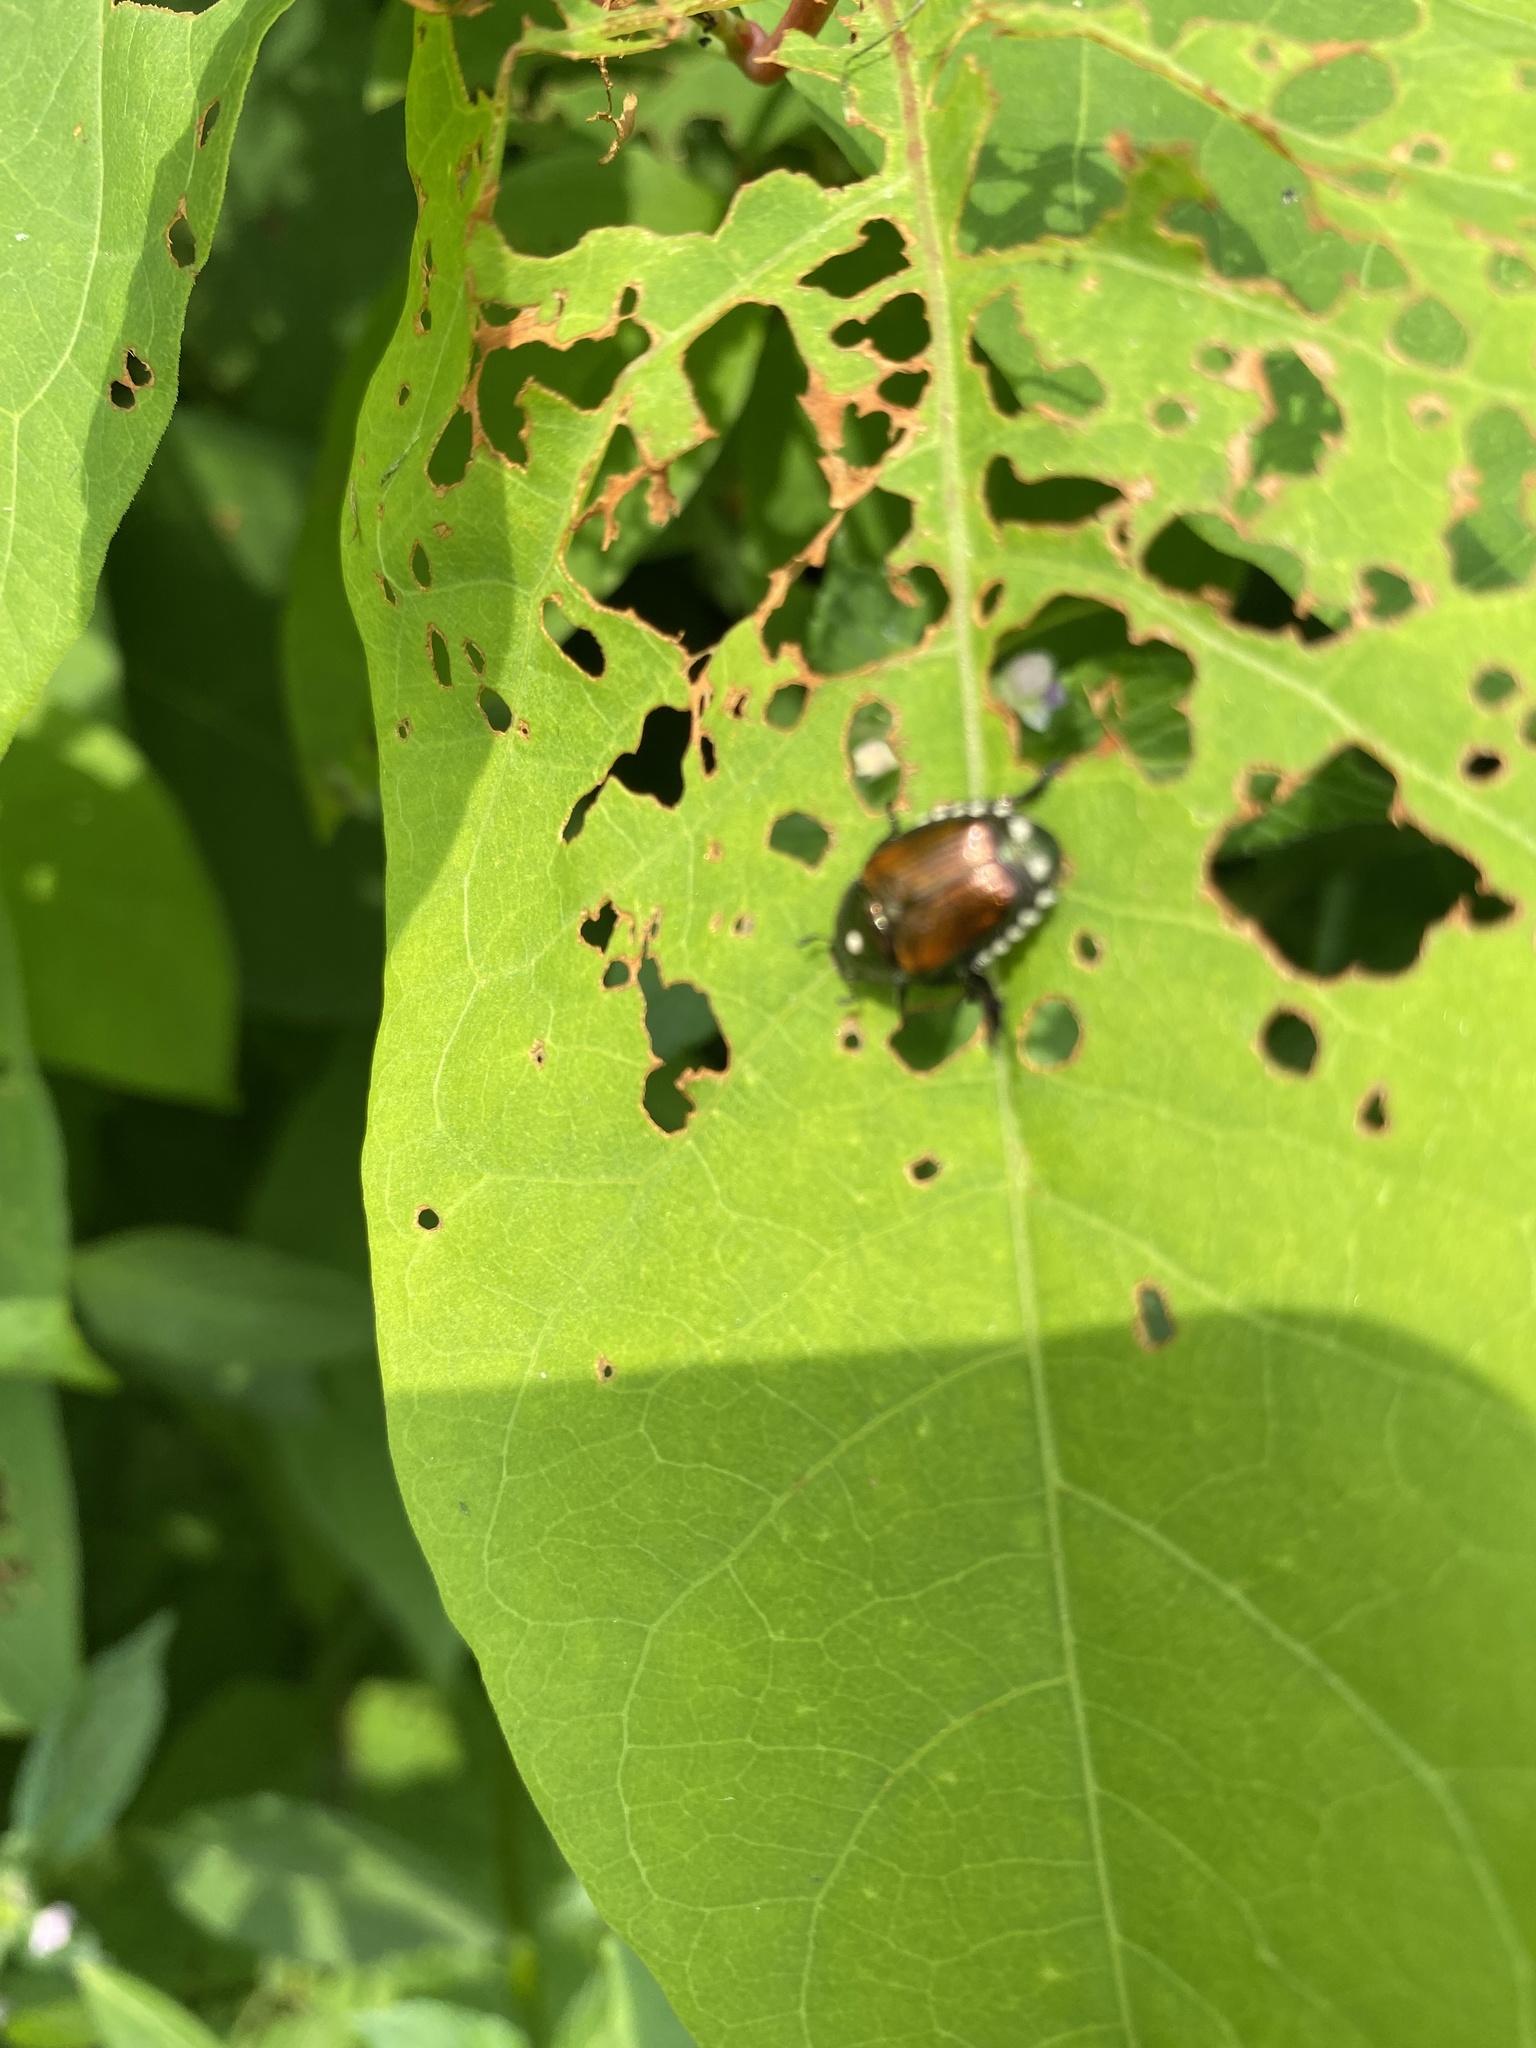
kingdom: Animalia
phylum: Arthropoda
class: Insecta
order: Coleoptera
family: Scarabaeidae
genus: Popillia
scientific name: Popillia japonica
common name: Japanese beetle
